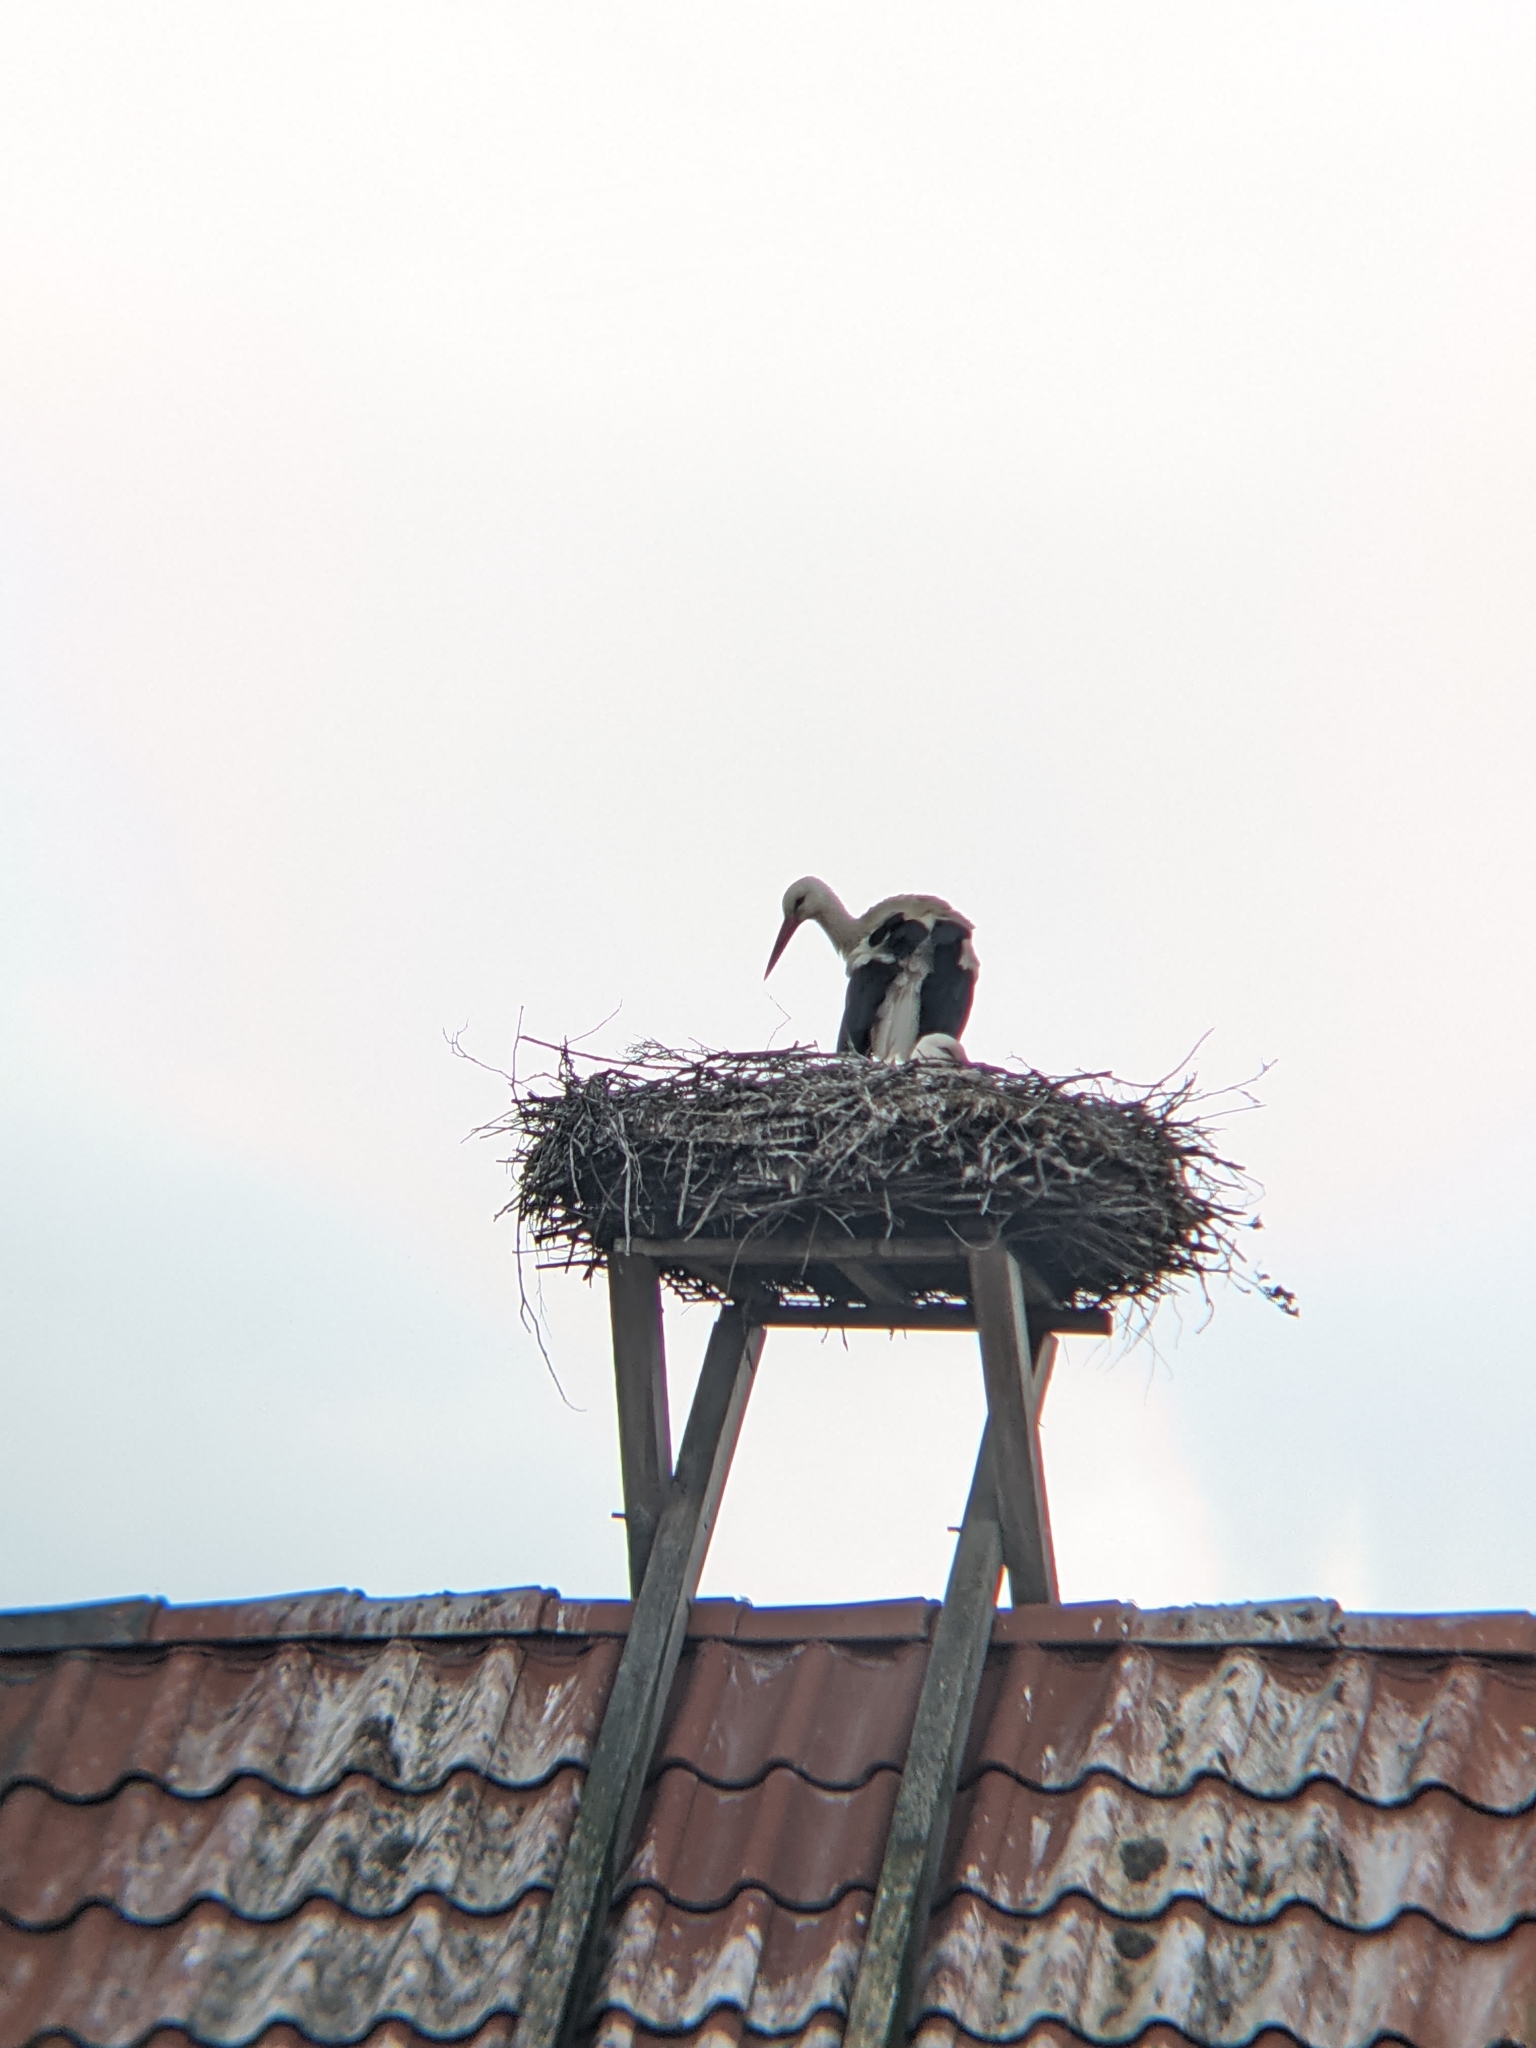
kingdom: Animalia
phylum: Chordata
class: Aves
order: Ciconiiformes
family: Ciconiidae
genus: Ciconia
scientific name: Ciconia ciconia
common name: White stork
